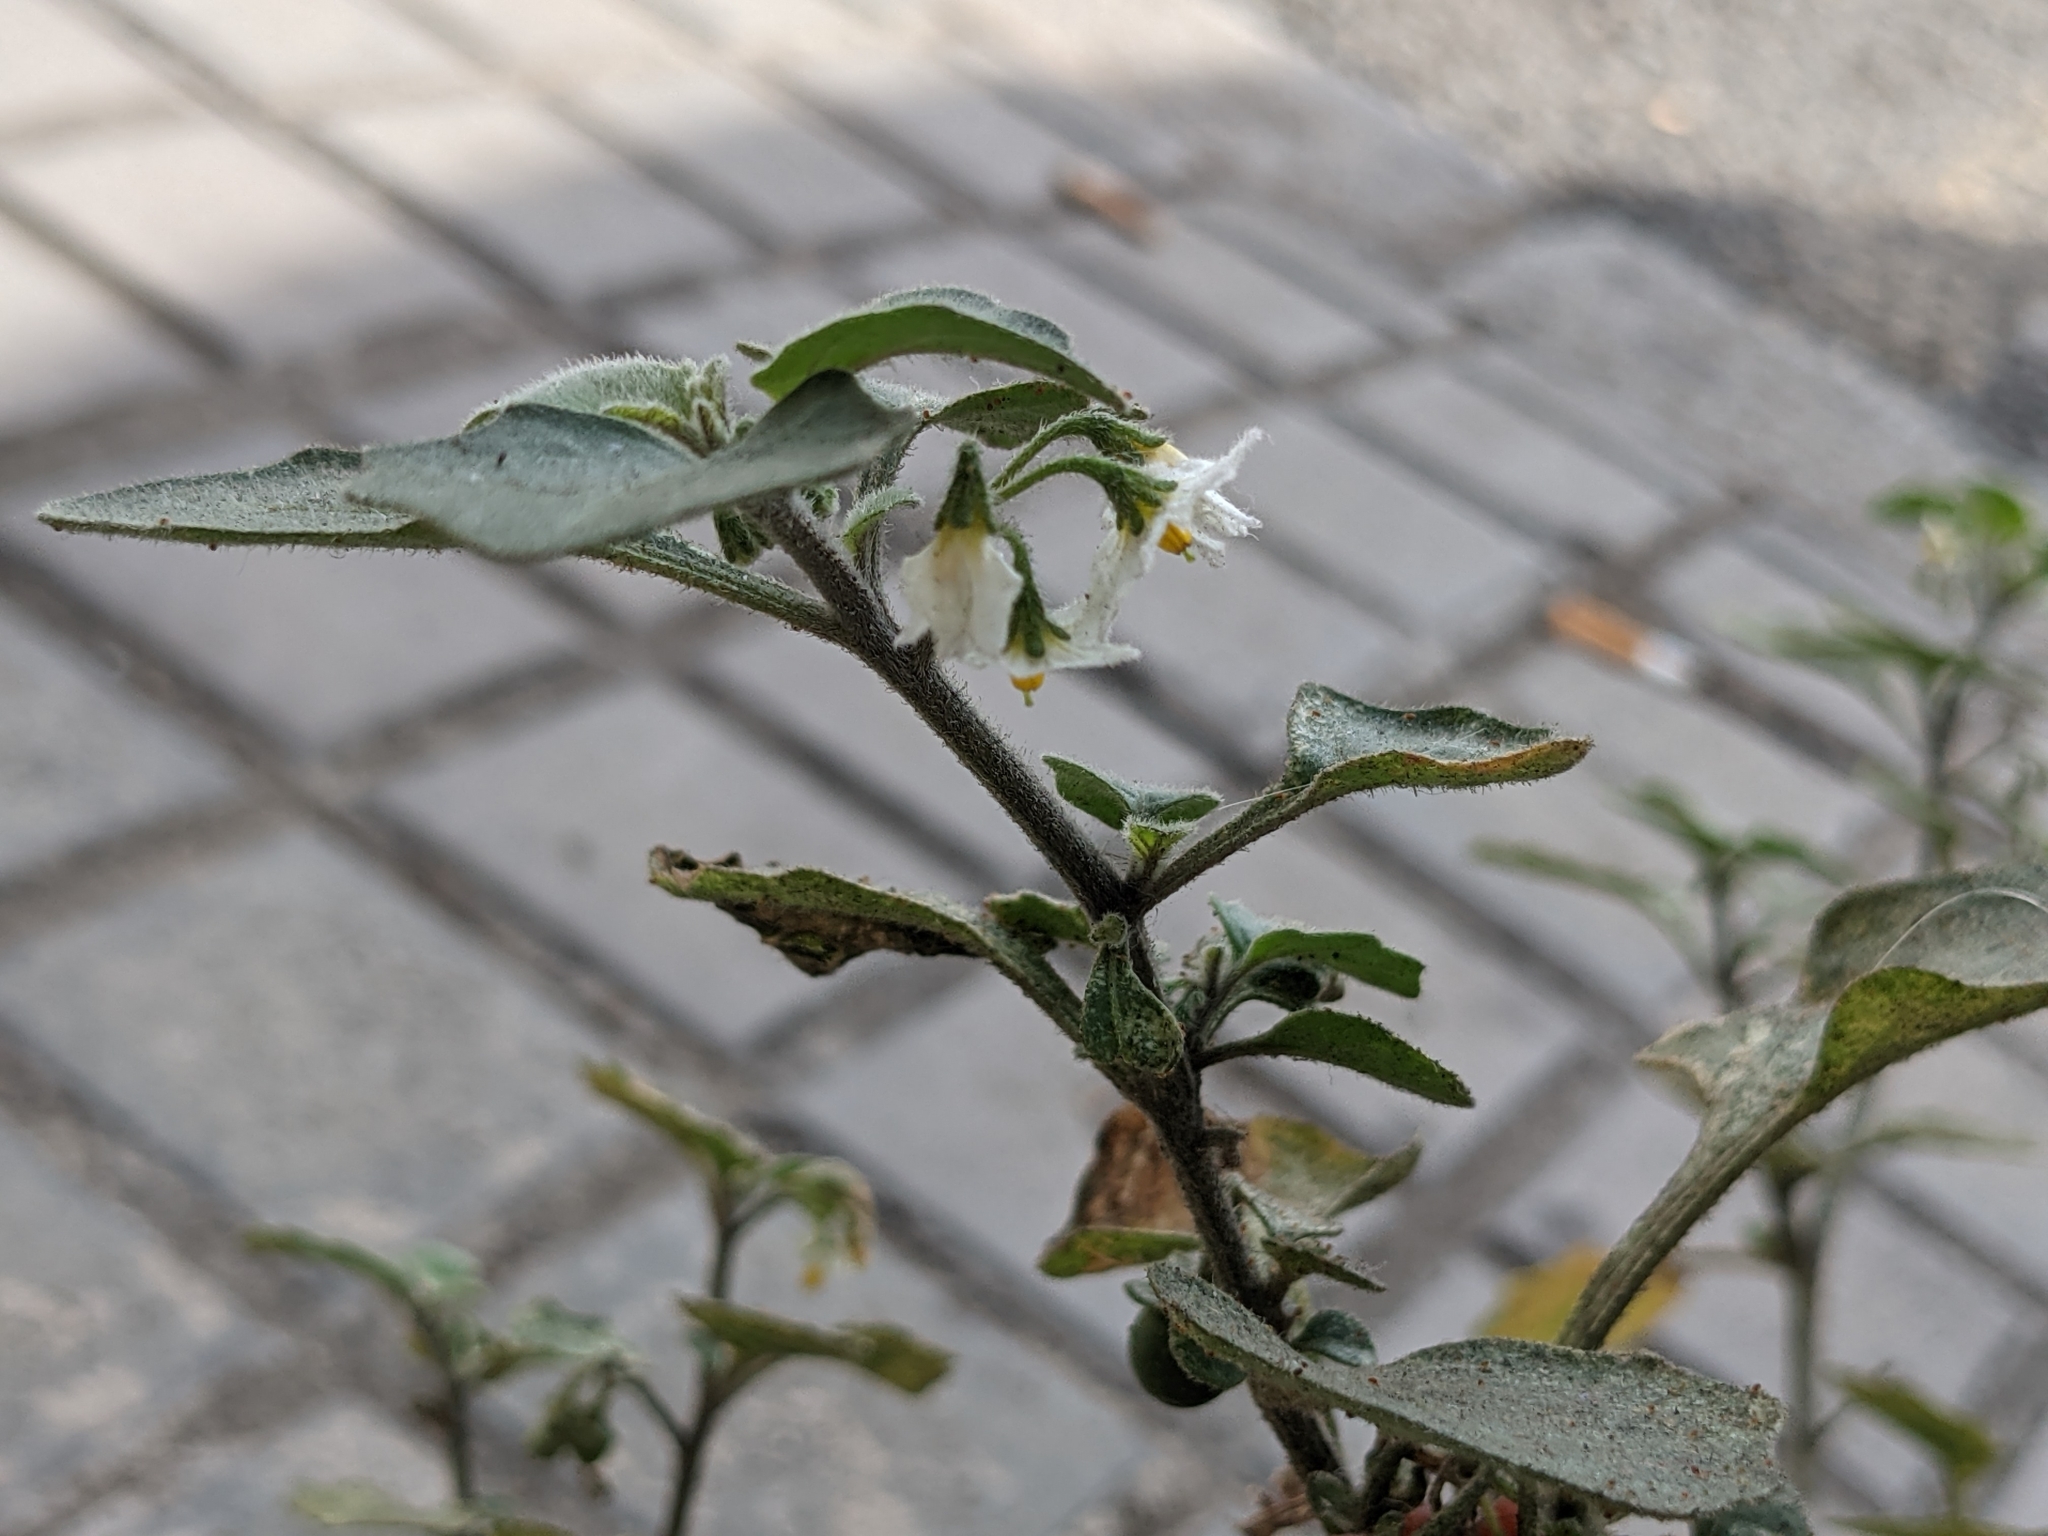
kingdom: Plantae
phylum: Tracheophyta
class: Magnoliopsida
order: Solanales
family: Solanaceae
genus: Solanum
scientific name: Solanum villosum
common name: Red nightshade
